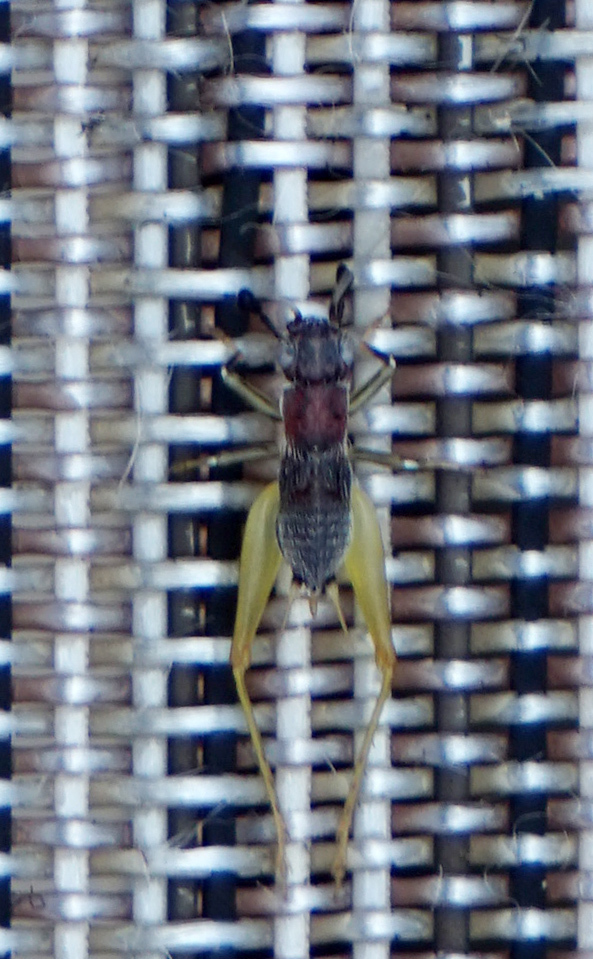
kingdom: Animalia
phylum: Arthropoda
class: Insecta
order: Orthoptera
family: Trigonidiidae
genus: Phyllopalpus
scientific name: Phyllopalpus pulchellus
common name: Handsome trig
